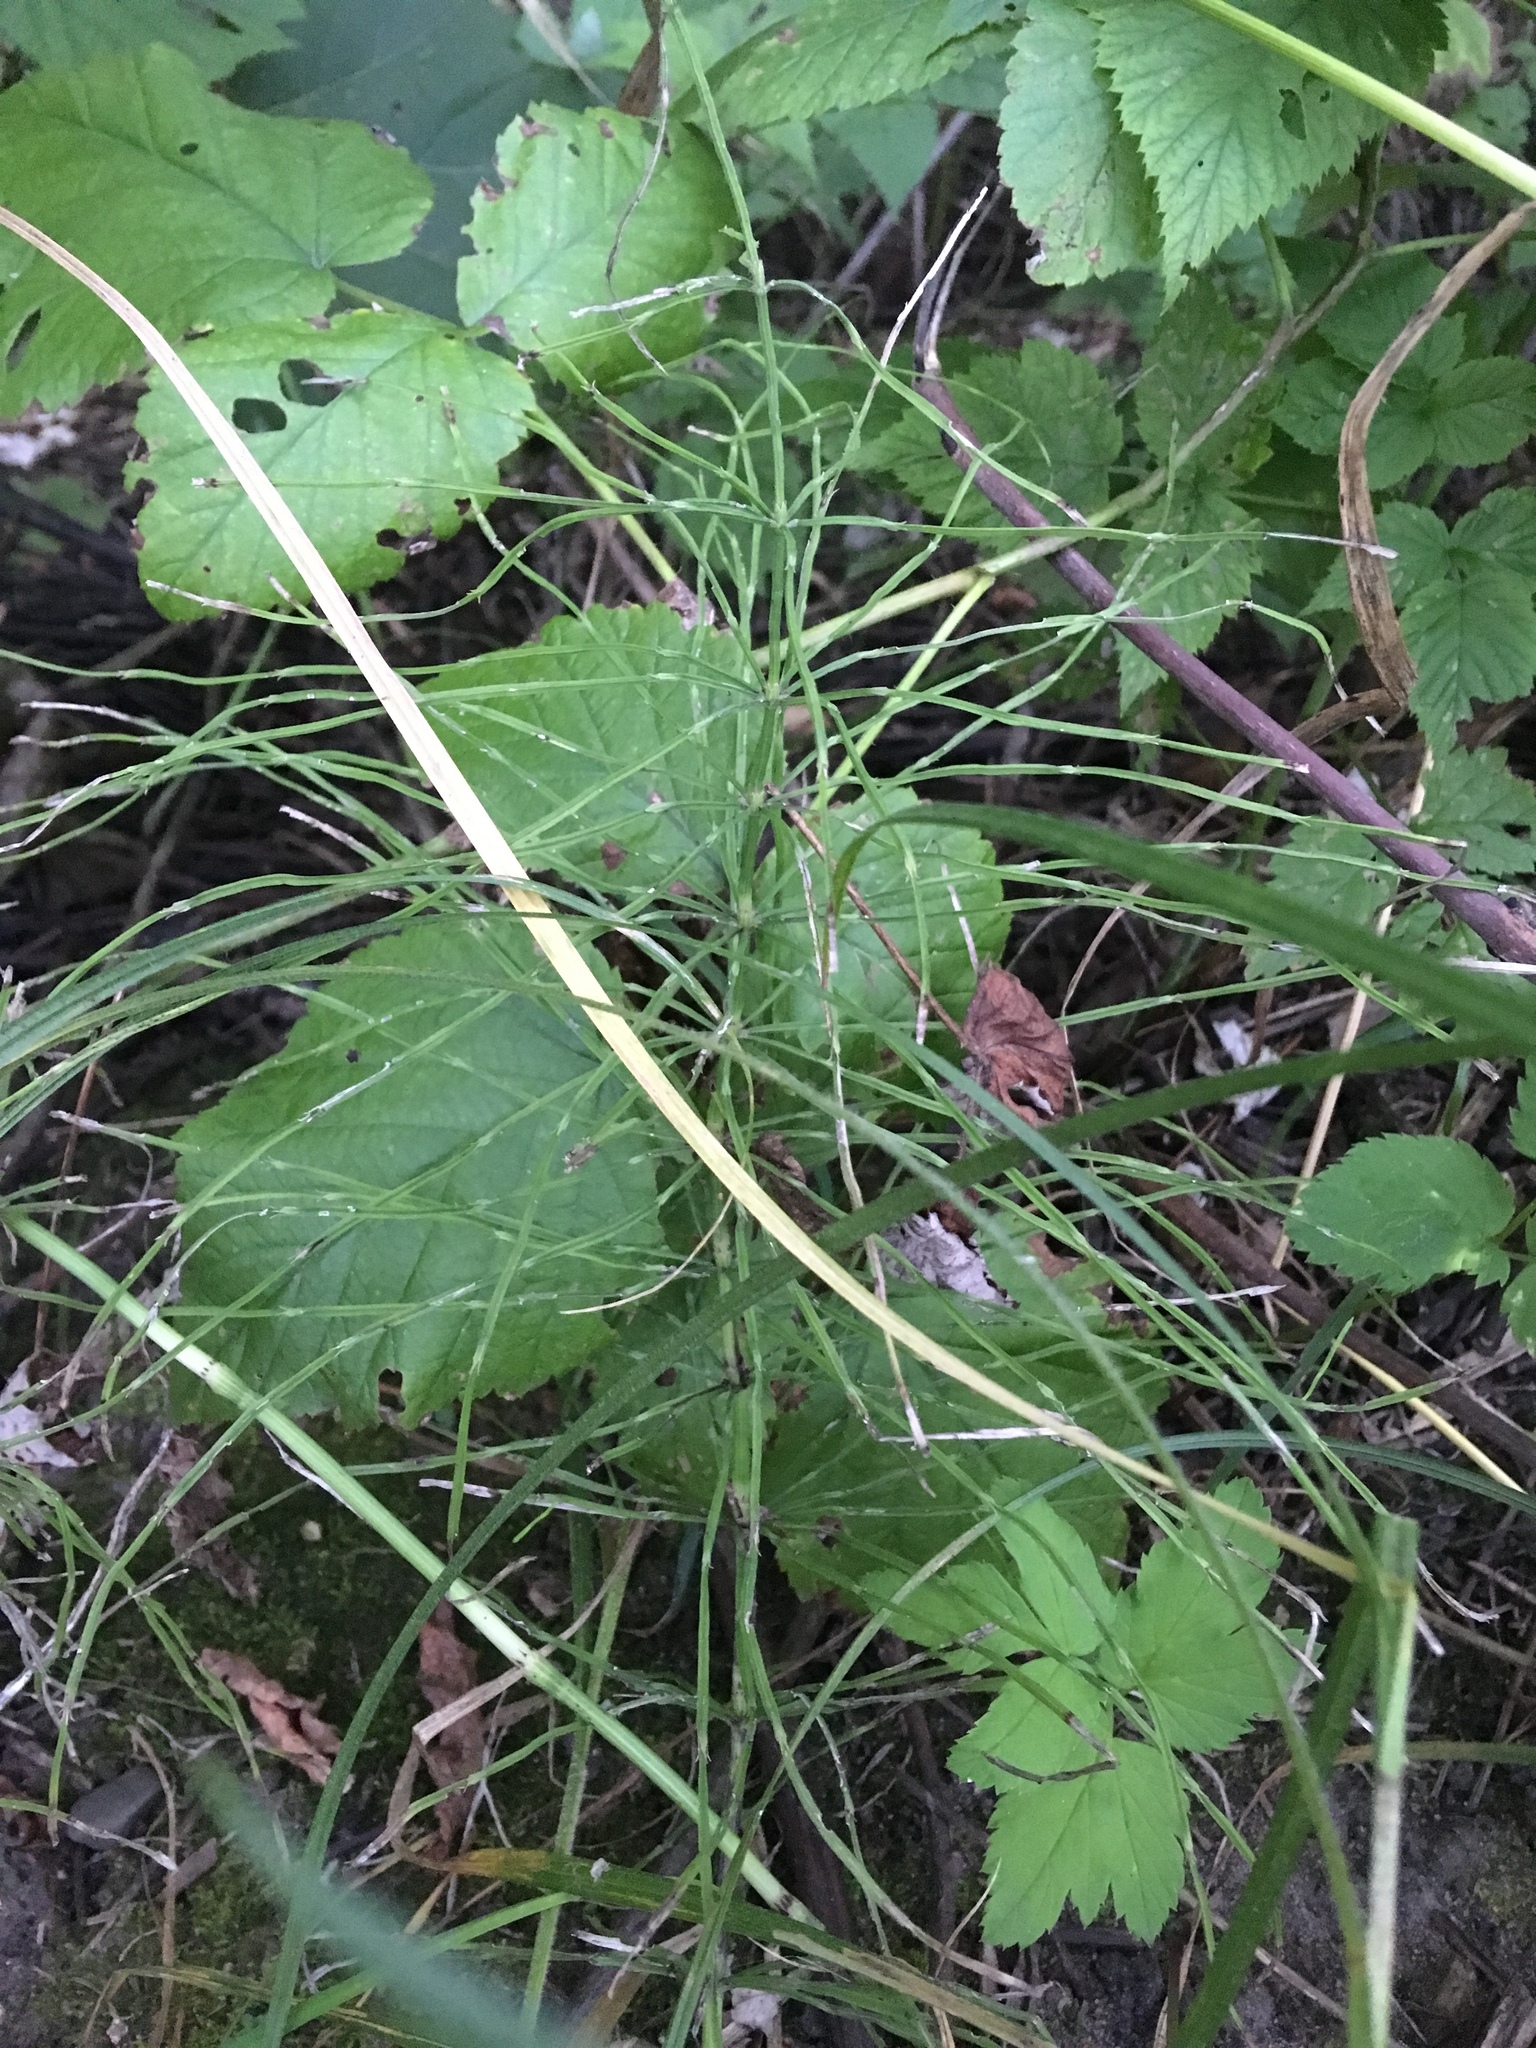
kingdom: Plantae
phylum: Tracheophyta
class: Polypodiopsida
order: Equisetales
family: Equisetaceae
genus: Equisetum
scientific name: Equisetum arvense
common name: Field horsetail
